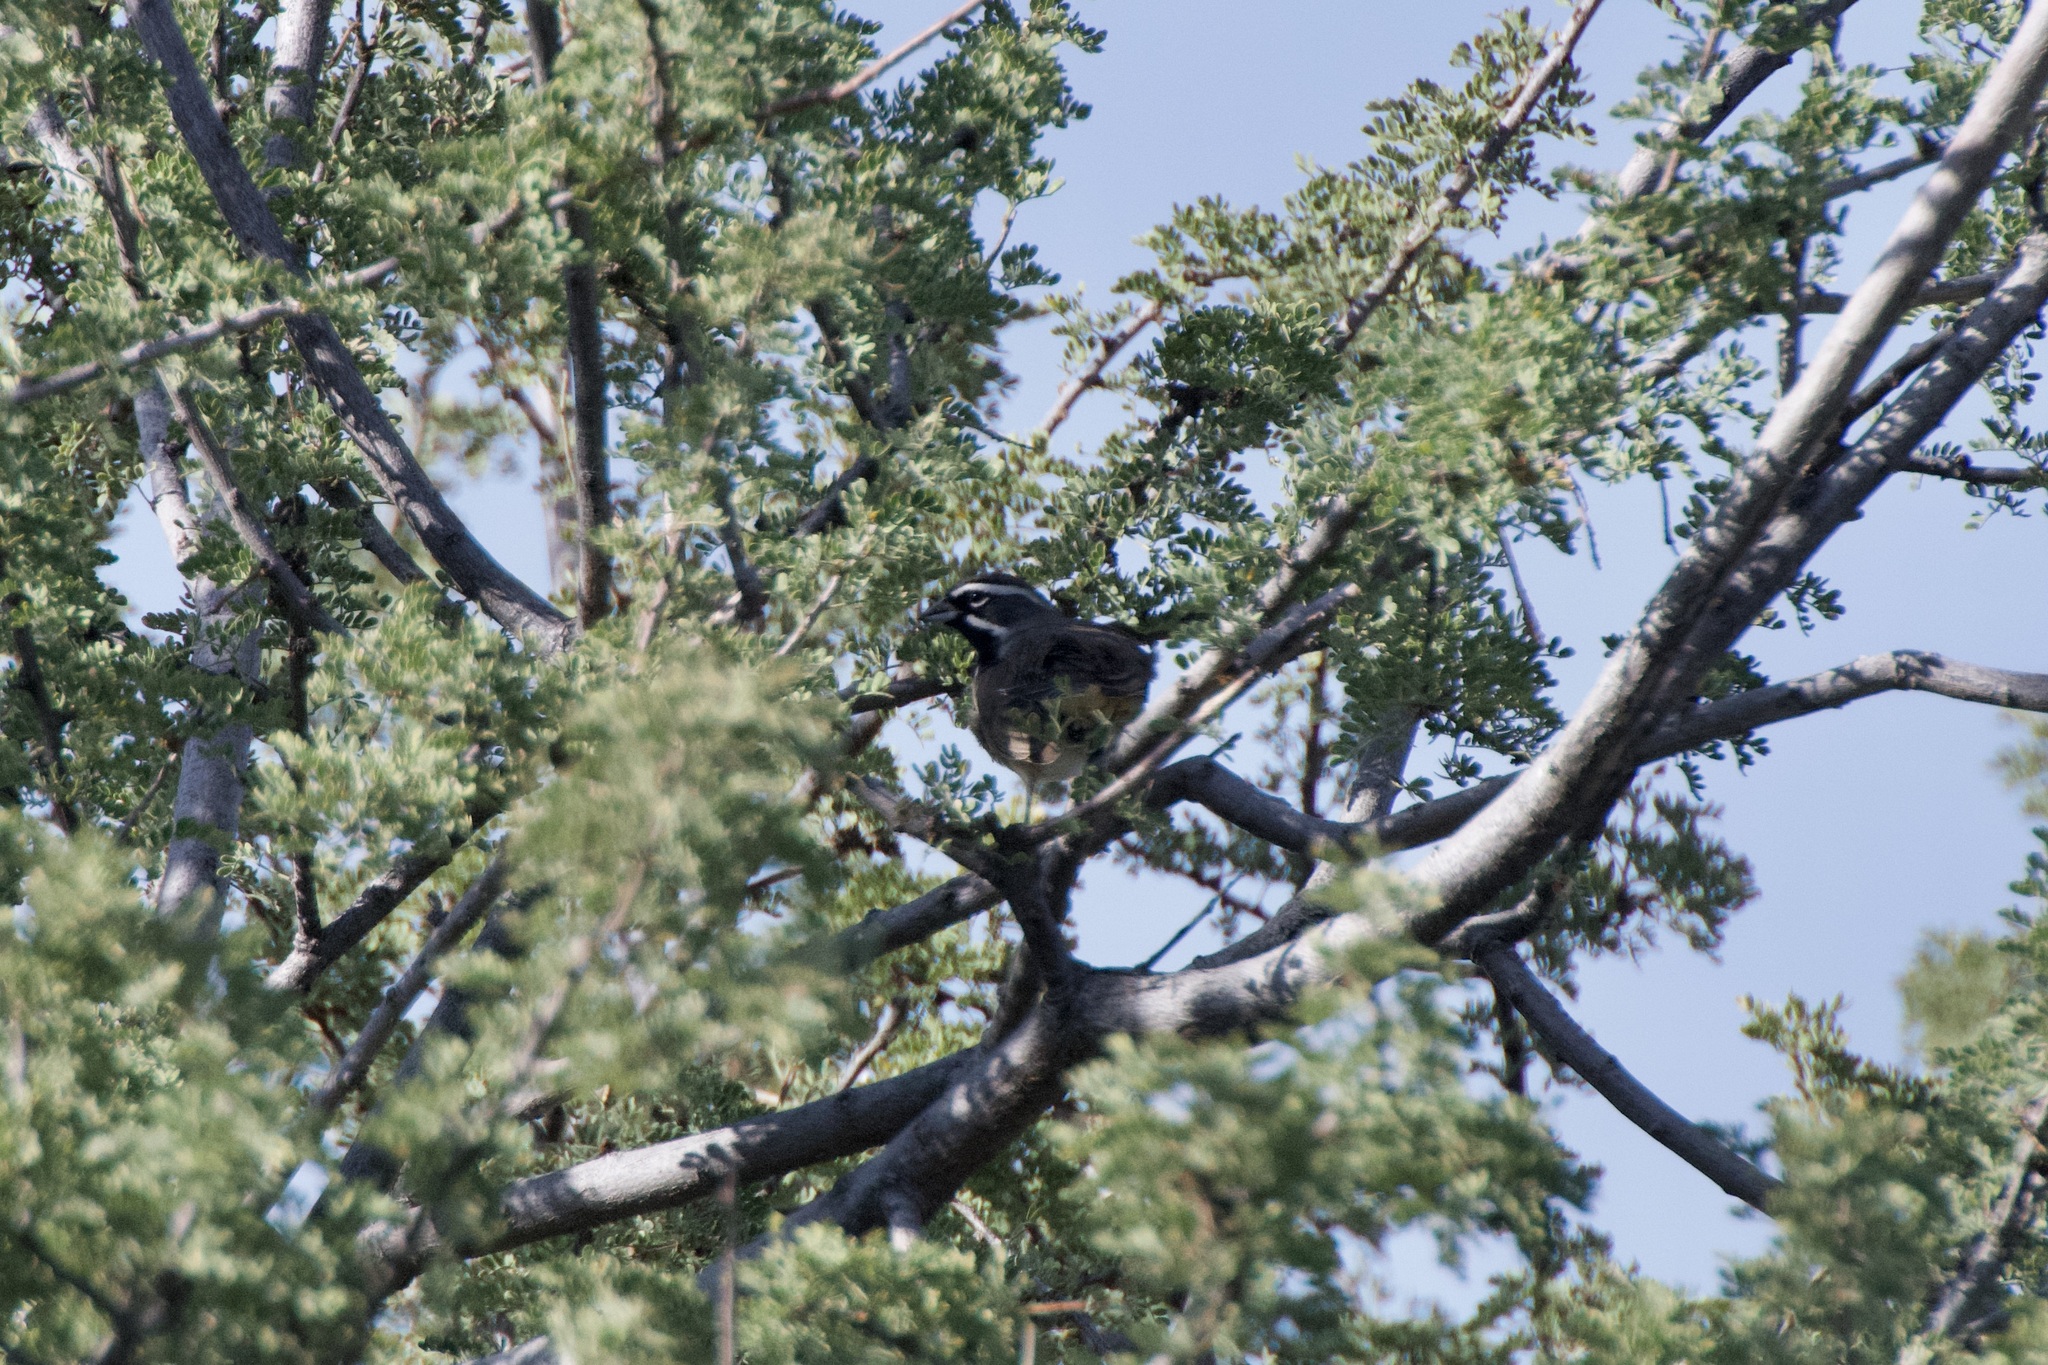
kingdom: Animalia
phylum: Chordata
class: Aves
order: Passeriformes
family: Passerellidae
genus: Amphispiza
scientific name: Amphispiza bilineata
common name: Black-throated sparrow
